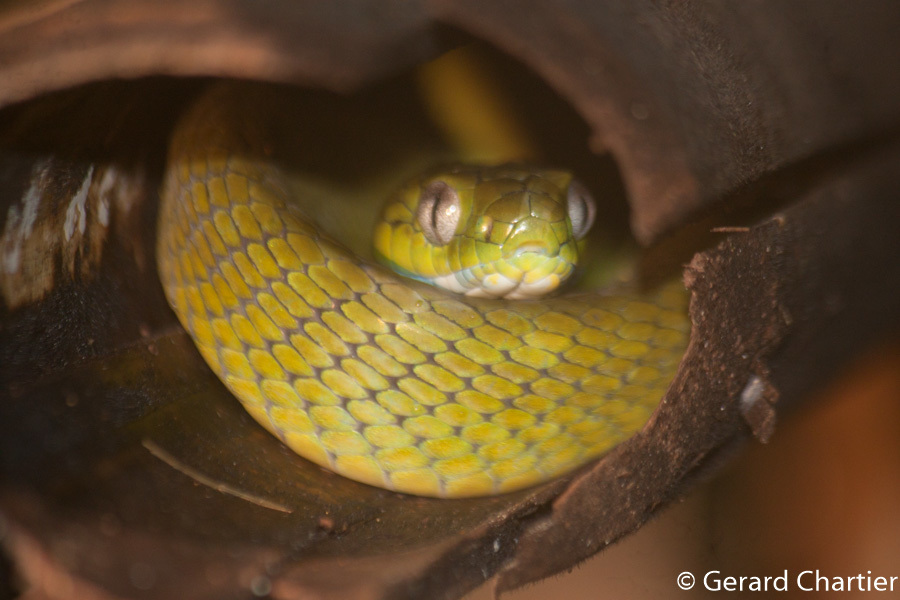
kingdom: Animalia
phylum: Chordata
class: Squamata
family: Colubridae
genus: Boiga
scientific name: Boiga cyanea
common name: Green cat snake
